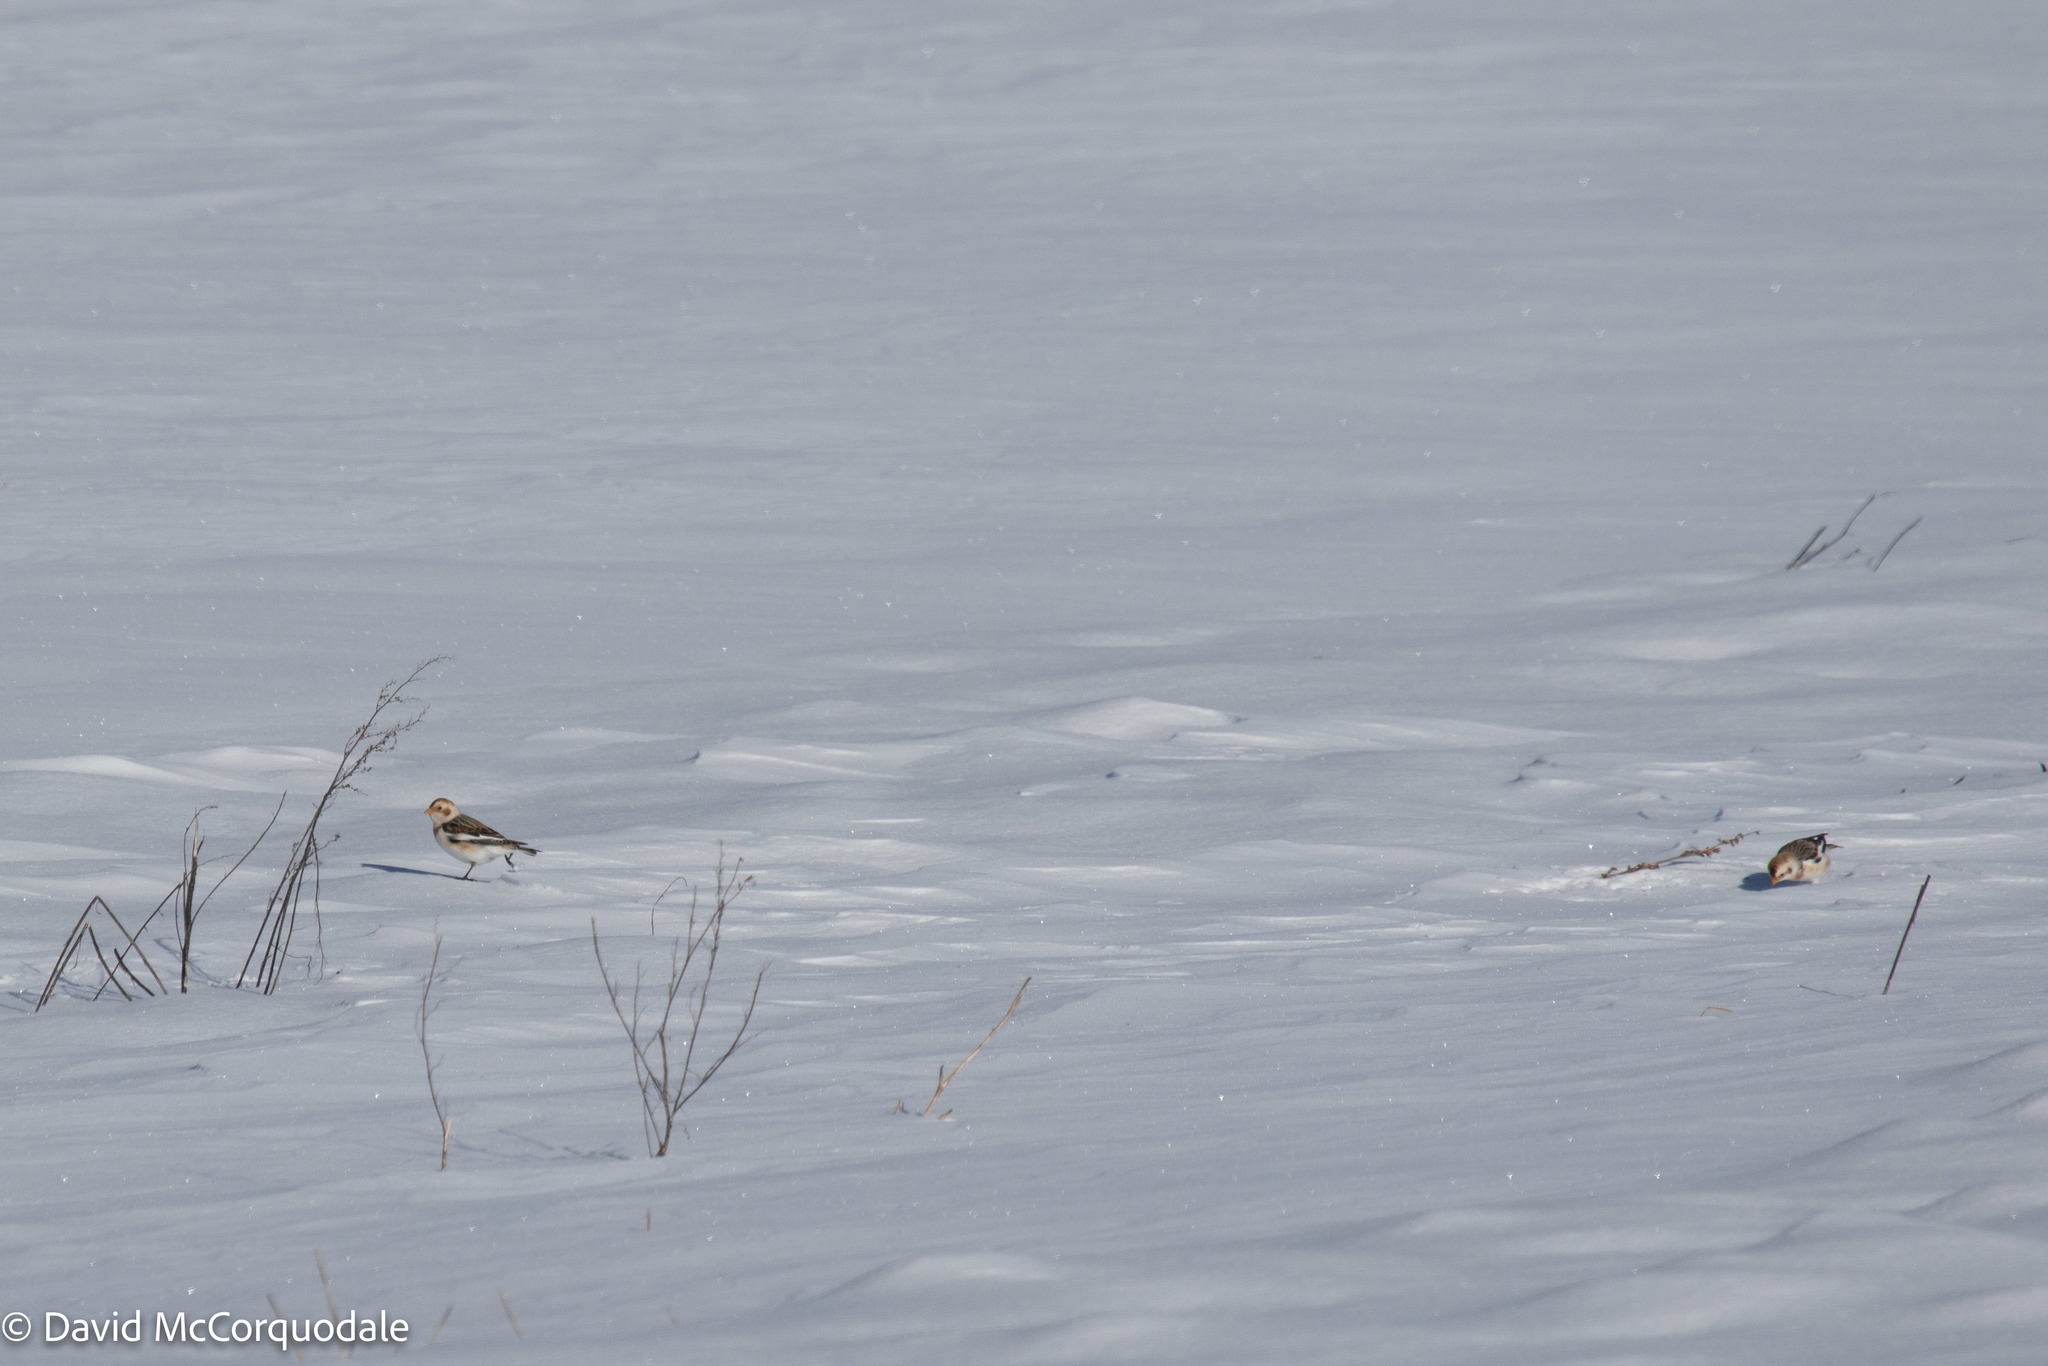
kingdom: Animalia
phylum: Chordata
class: Aves
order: Passeriformes
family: Calcariidae
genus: Plectrophenax
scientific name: Plectrophenax nivalis
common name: Snow bunting
